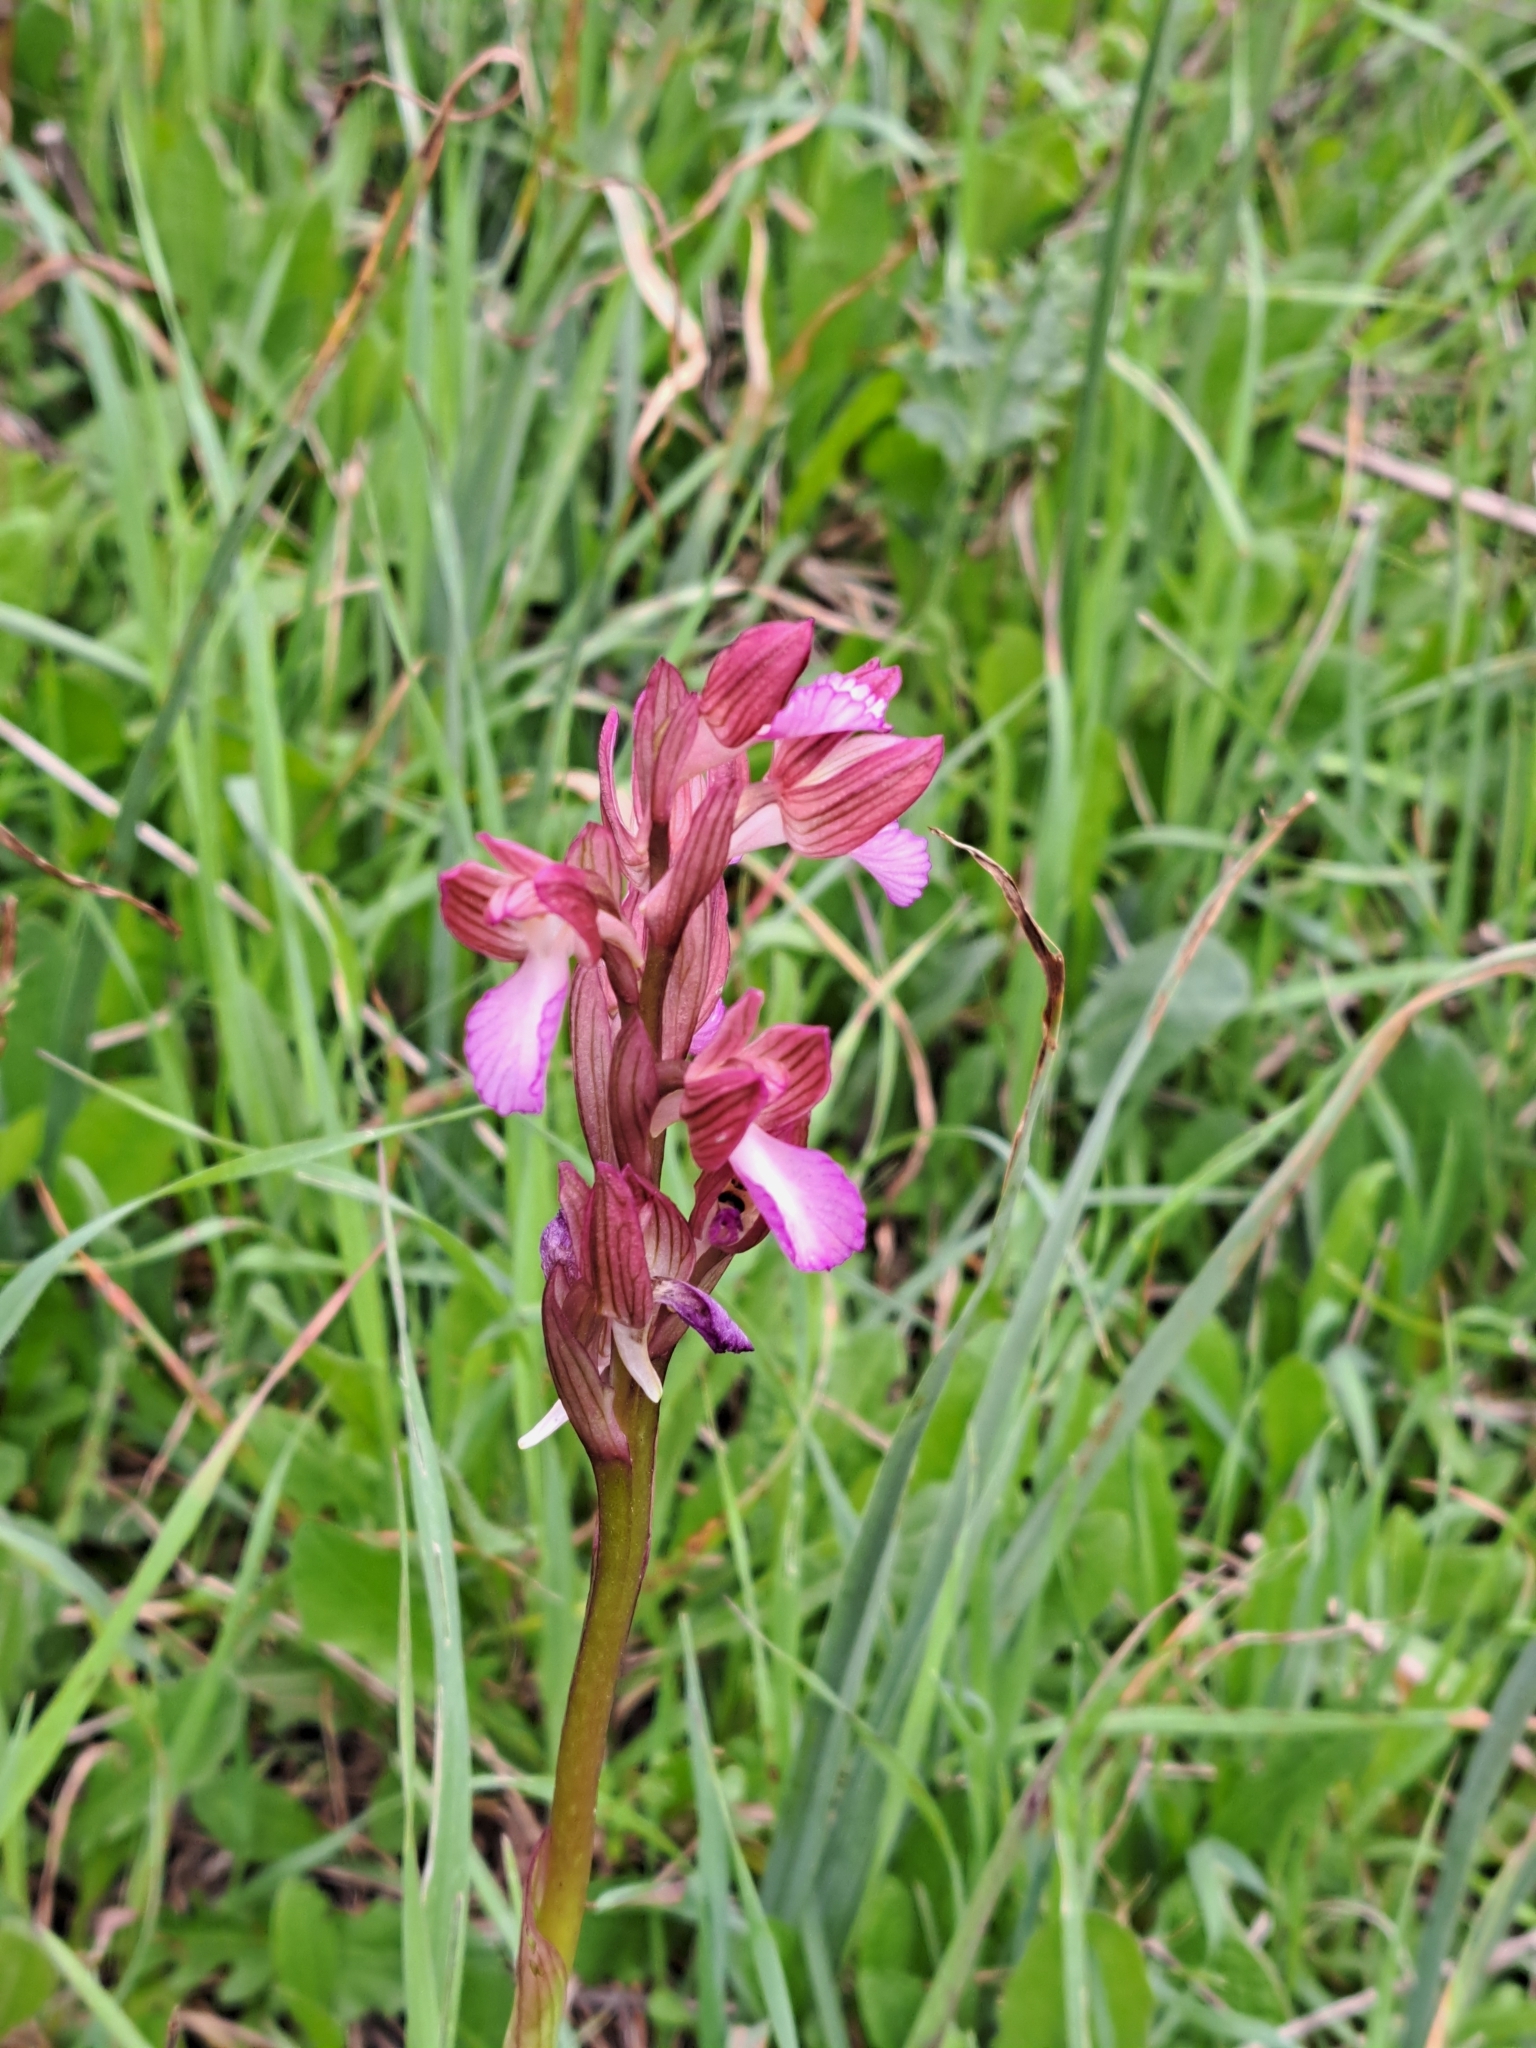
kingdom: Plantae
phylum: Tracheophyta
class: Liliopsida
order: Asparagales
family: Orchidaceae
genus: Anacamptis
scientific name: Anacamptis papilionacea
